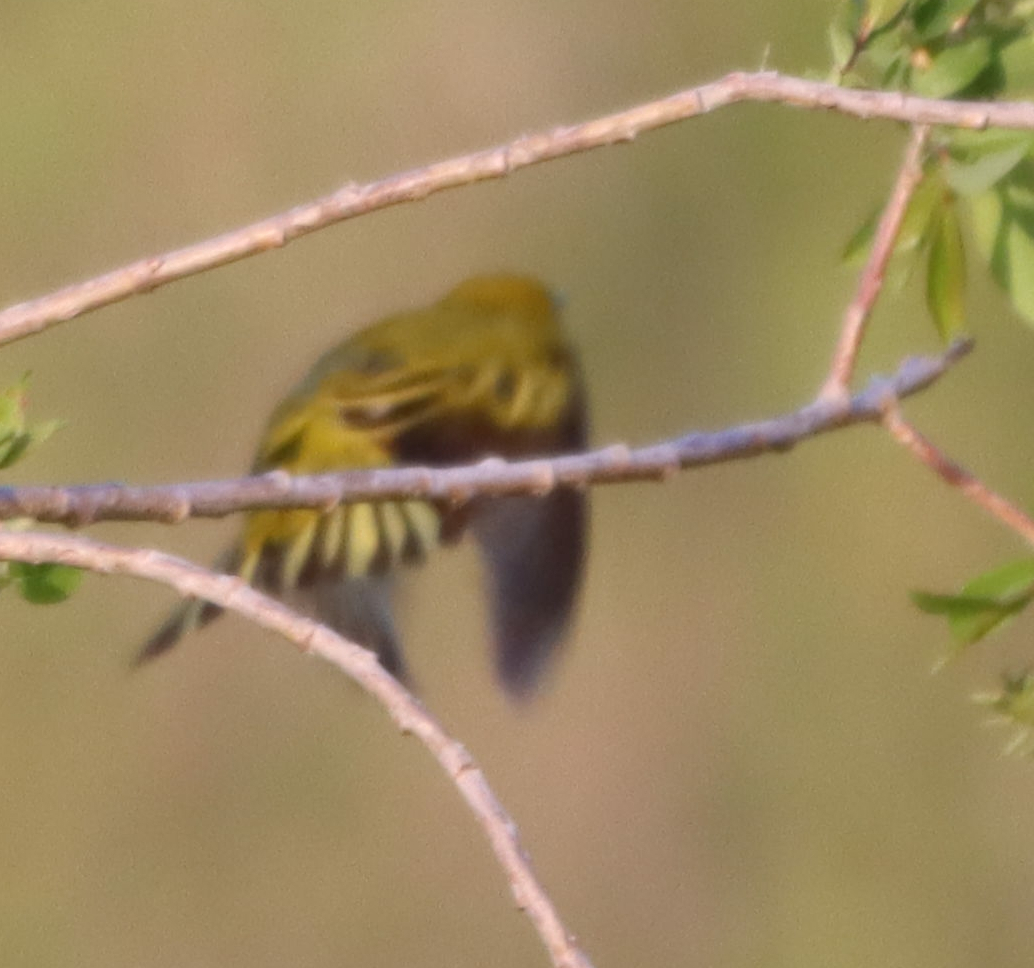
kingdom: Animalia
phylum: Chordata
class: Aves
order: Passeriformes
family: Parulidae
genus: Setophaga
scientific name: Setophaga petechia
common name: Yellow warbler
